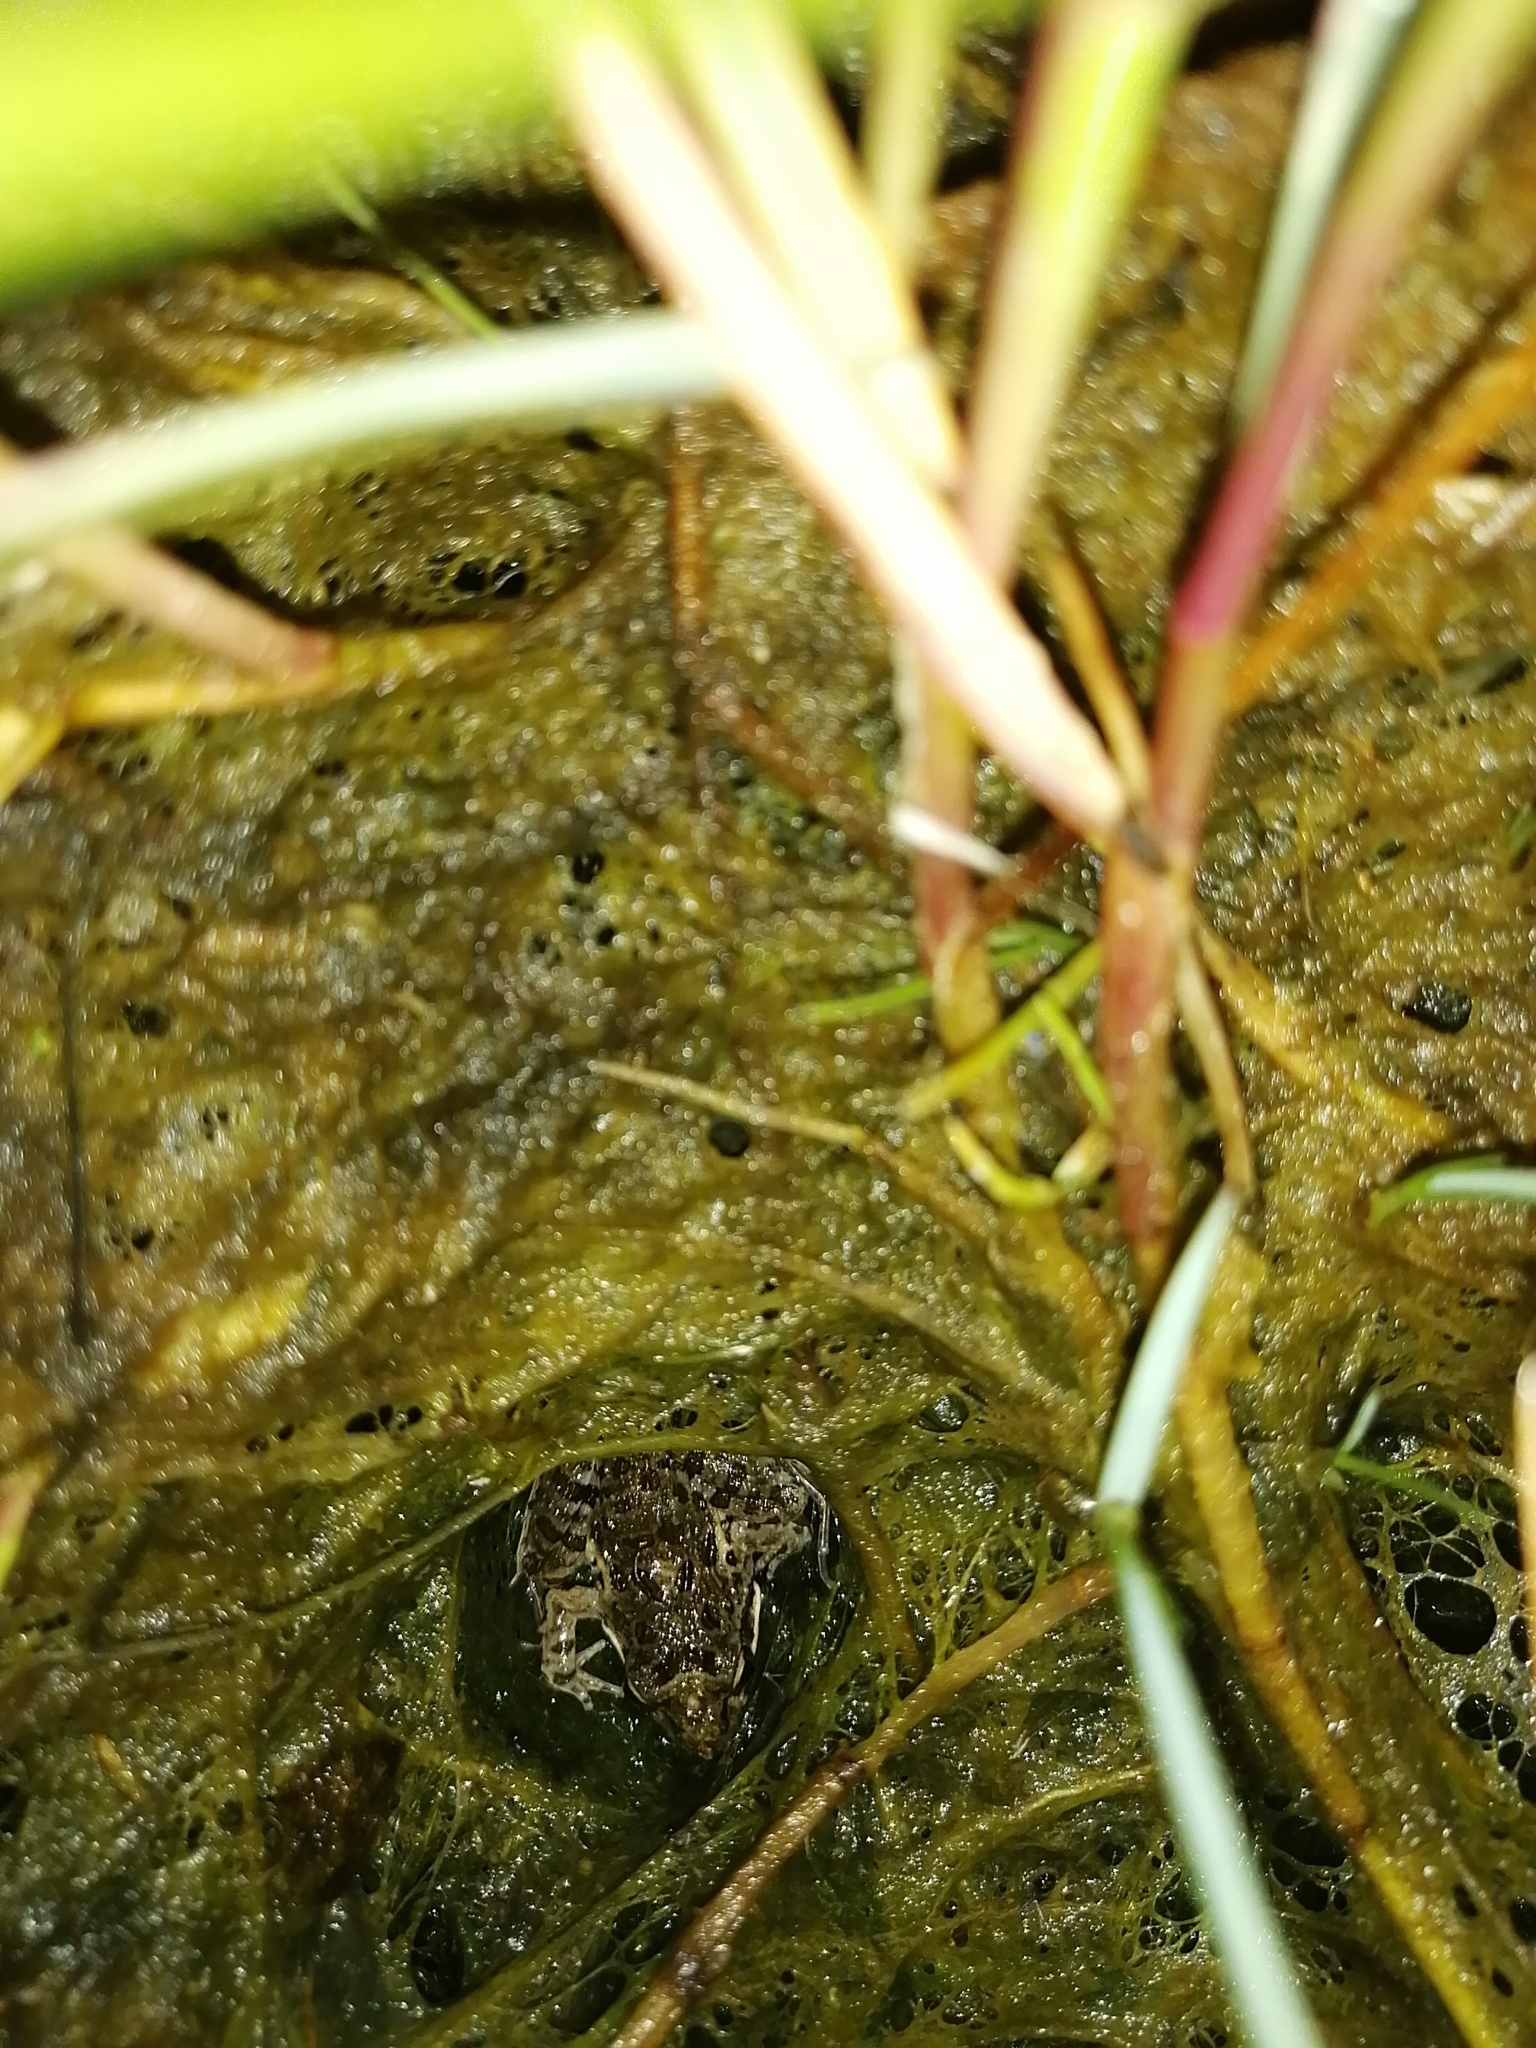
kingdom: Animalia
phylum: Chordata
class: Amphibia
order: Anura
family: Pyxicephalidae
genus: Strongylopus
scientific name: Strongylopus grayii
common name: Gray's stream frog
